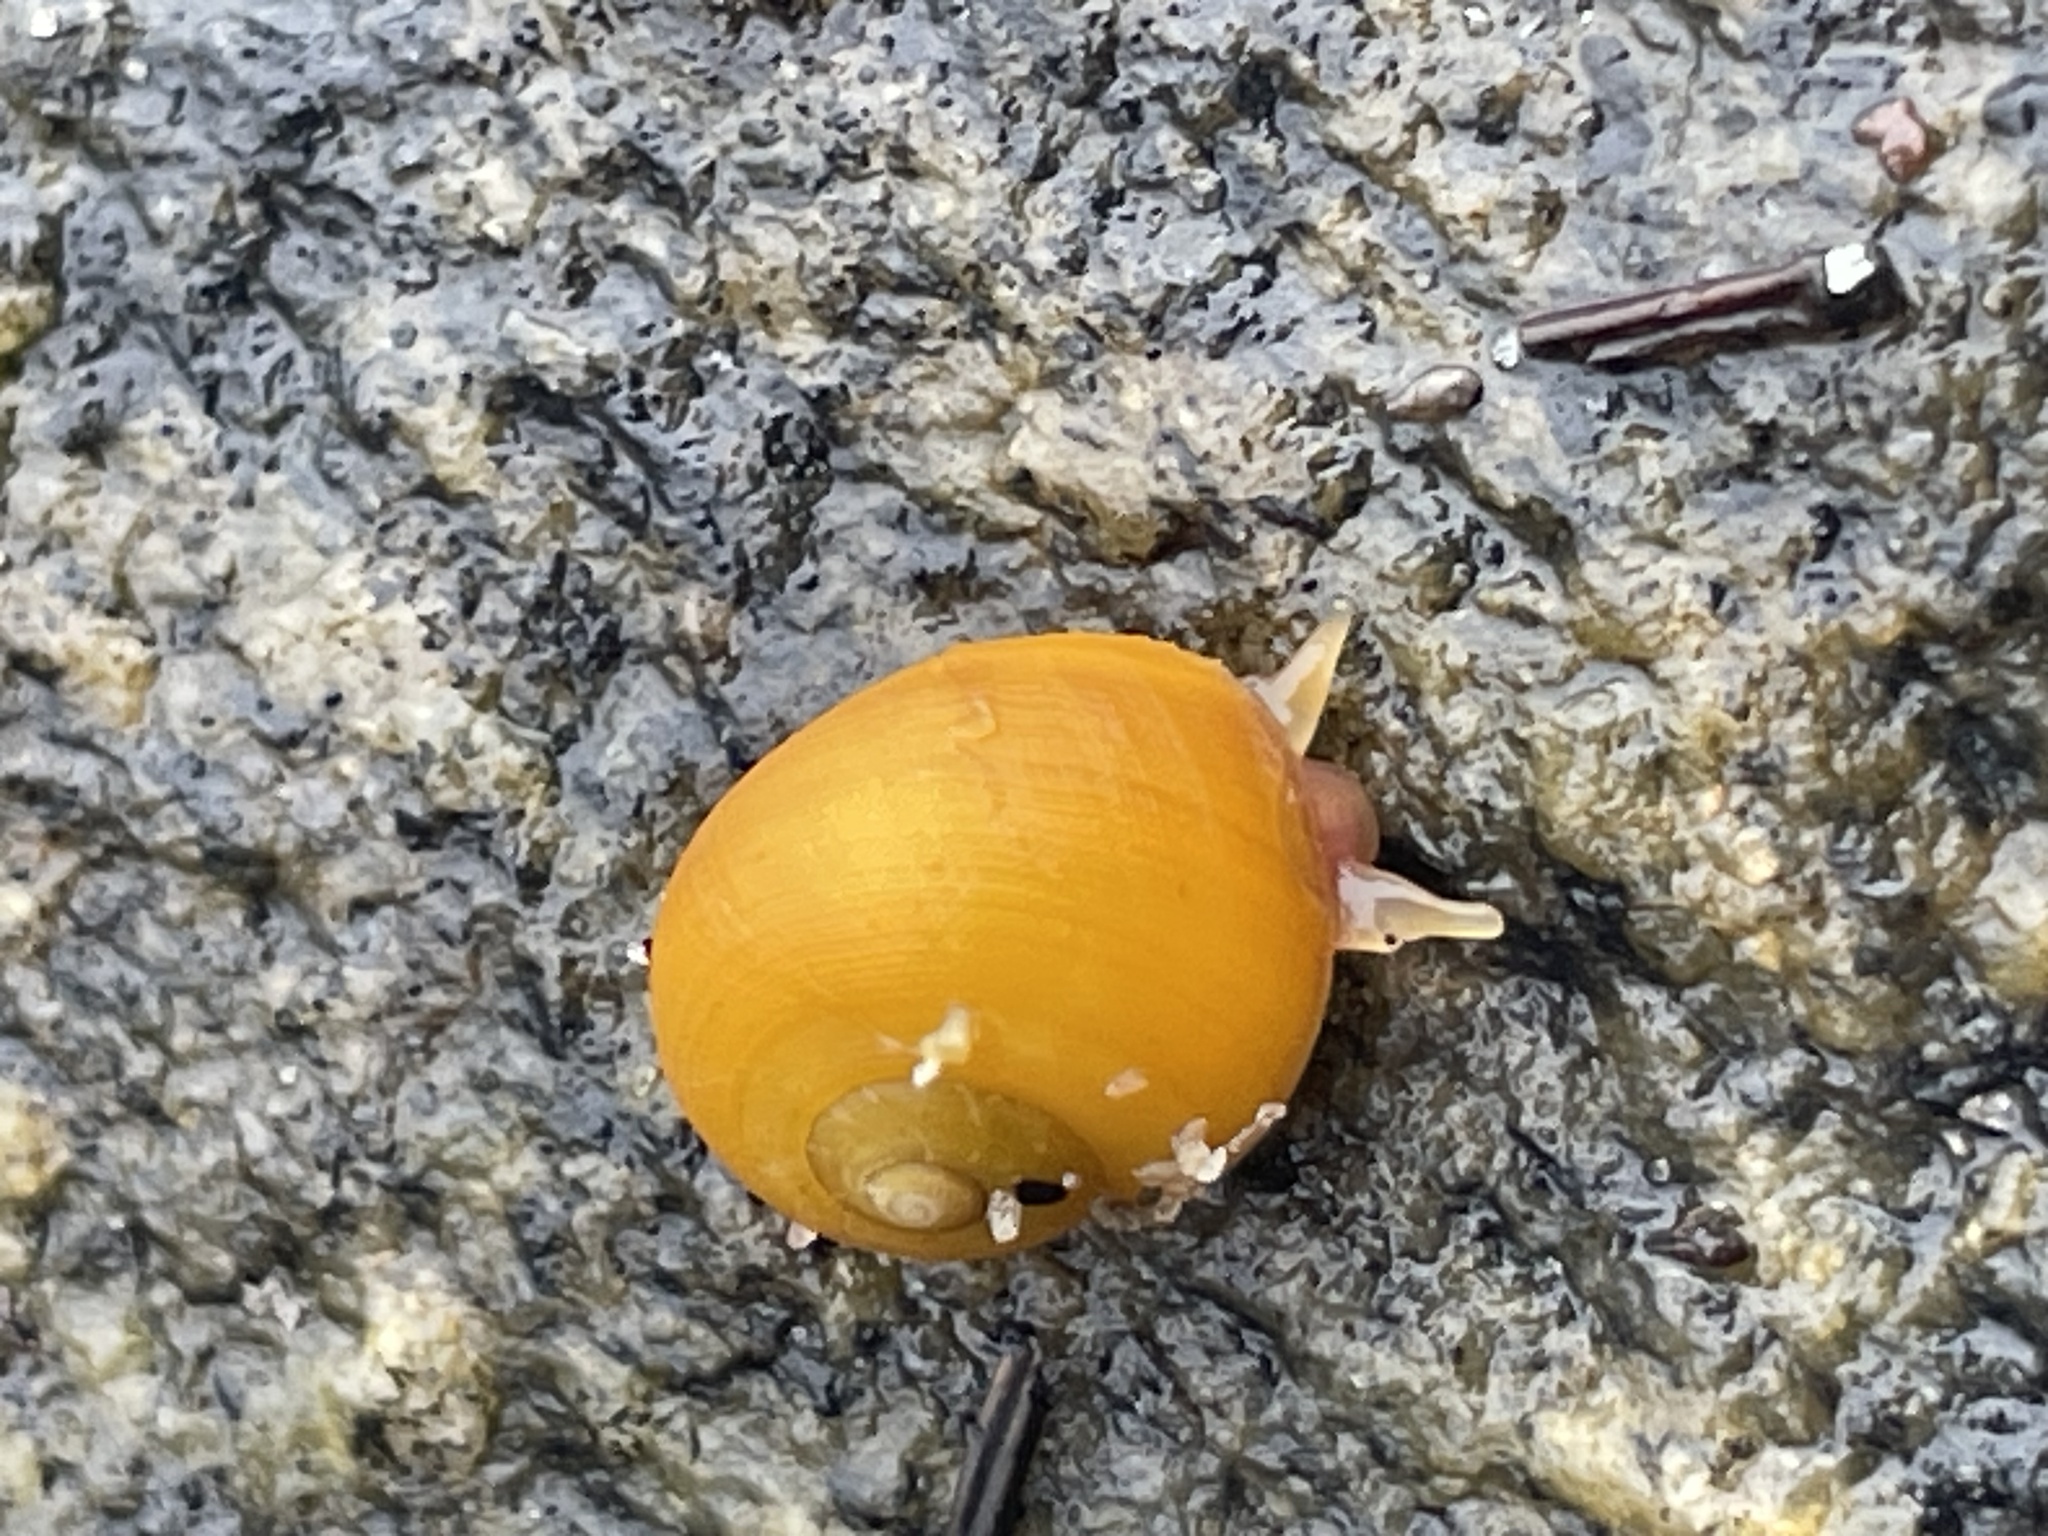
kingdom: Animalia
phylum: Mollusca
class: Gastropoda
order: Littorinimorpha
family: Littorinidae
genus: Littorina
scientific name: Littorina obtusata
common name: Flat periwinkle
